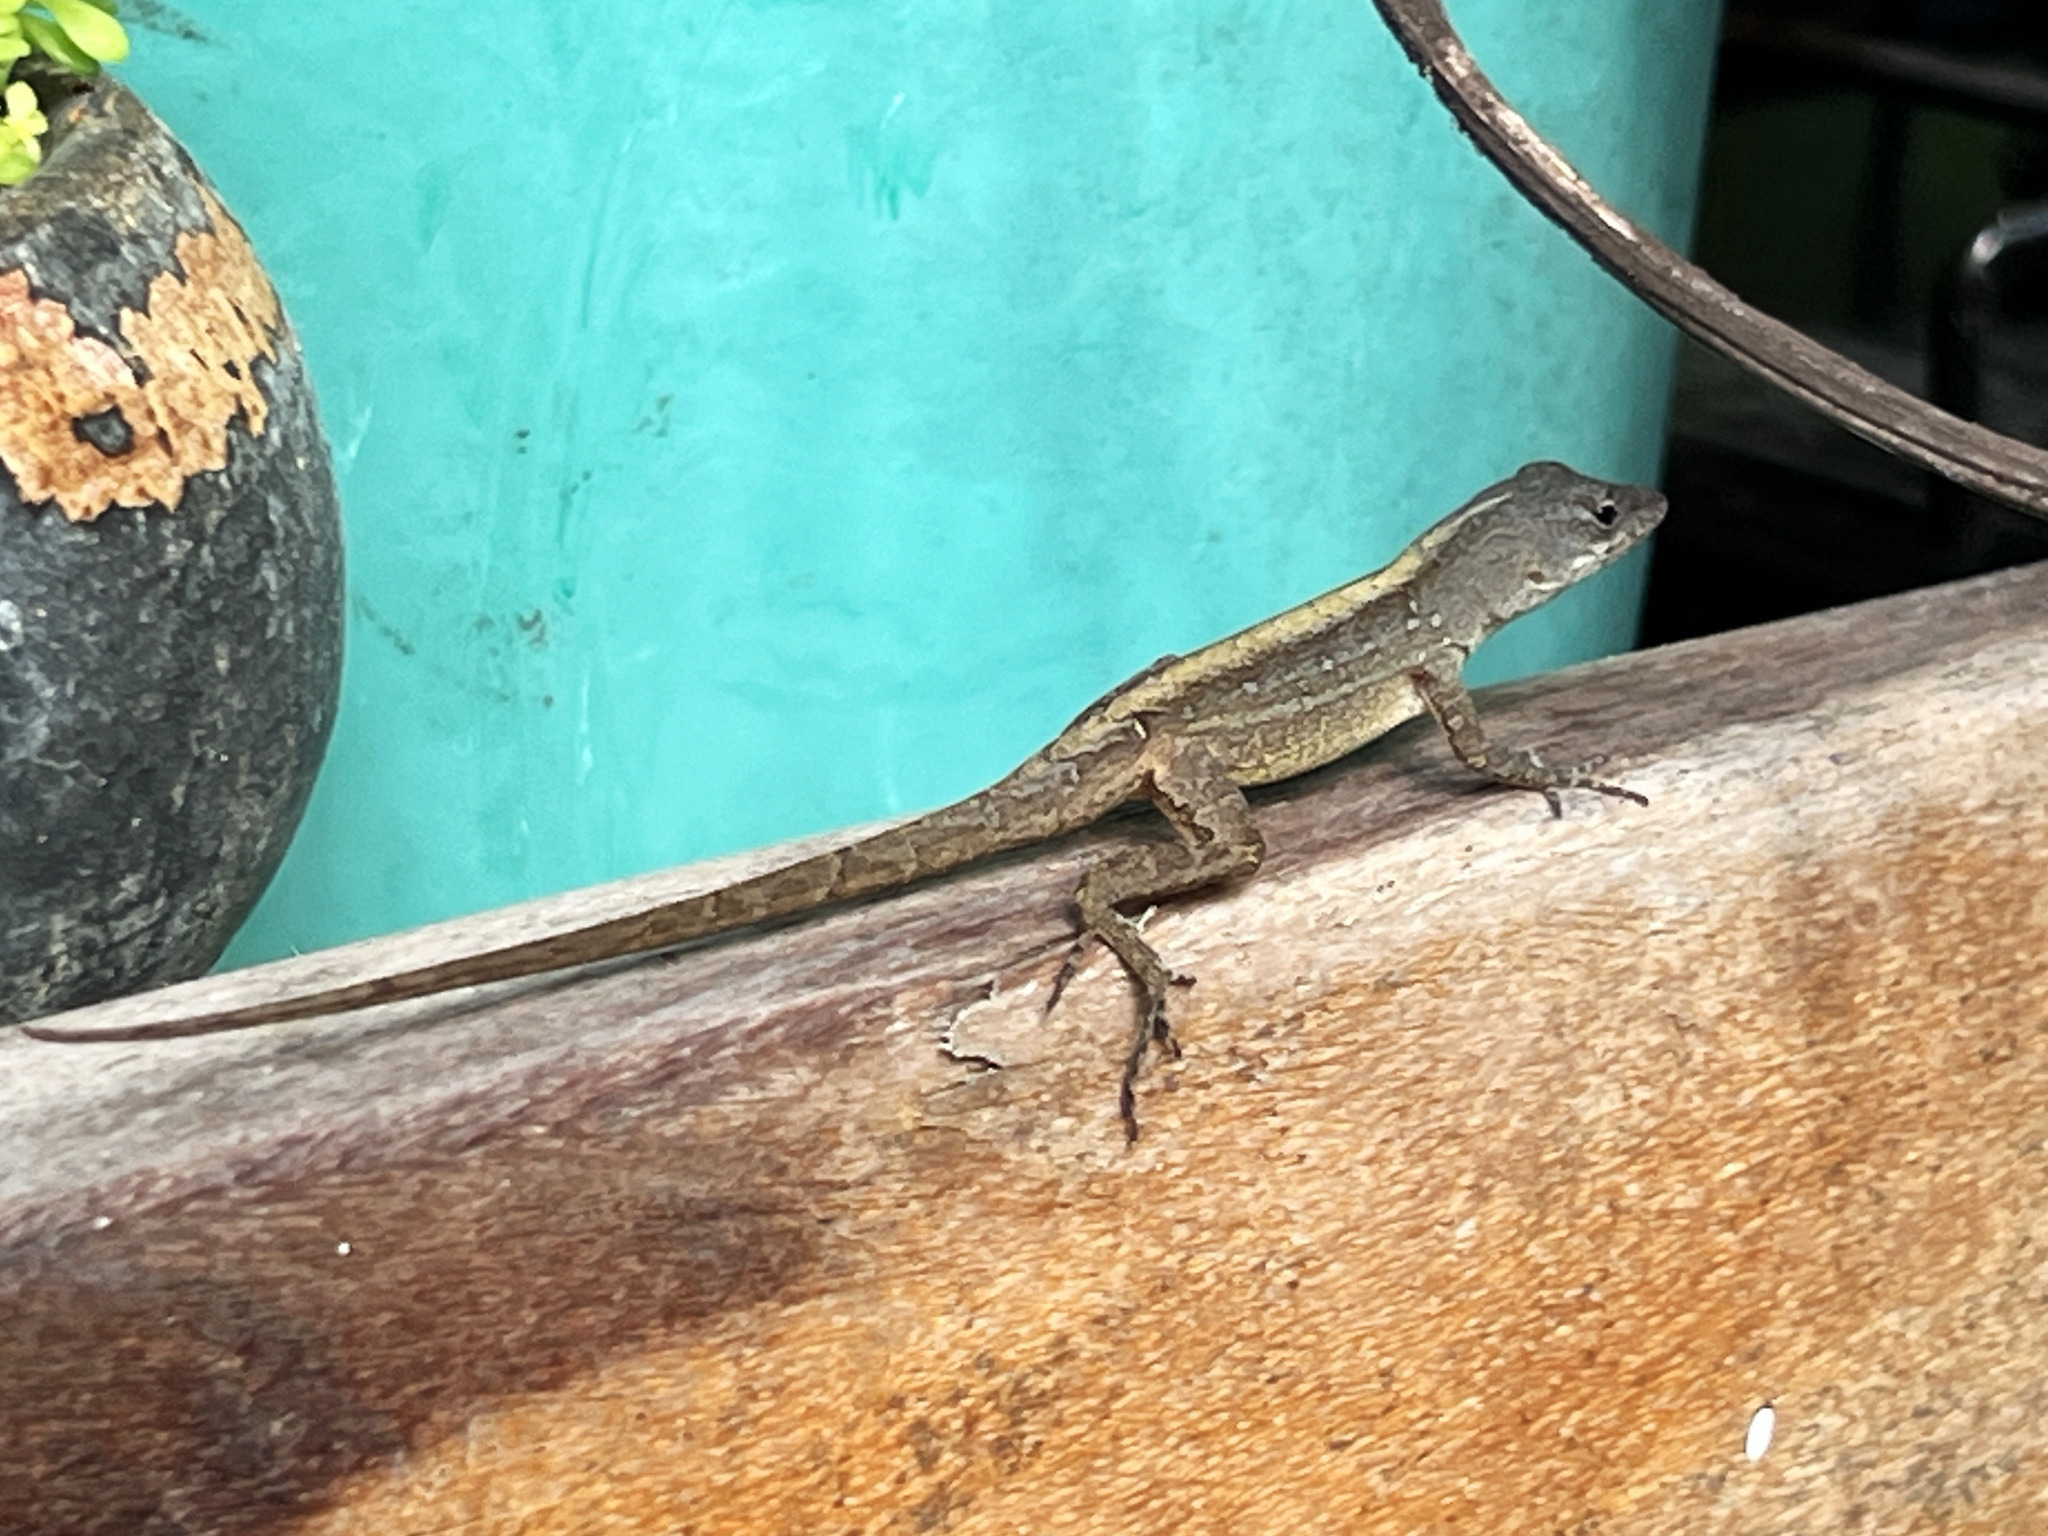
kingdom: Animalia
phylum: Chordata
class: Squamata
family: Dactyloidae
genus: Anolis
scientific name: Anolis sagrei
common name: Brown anole
